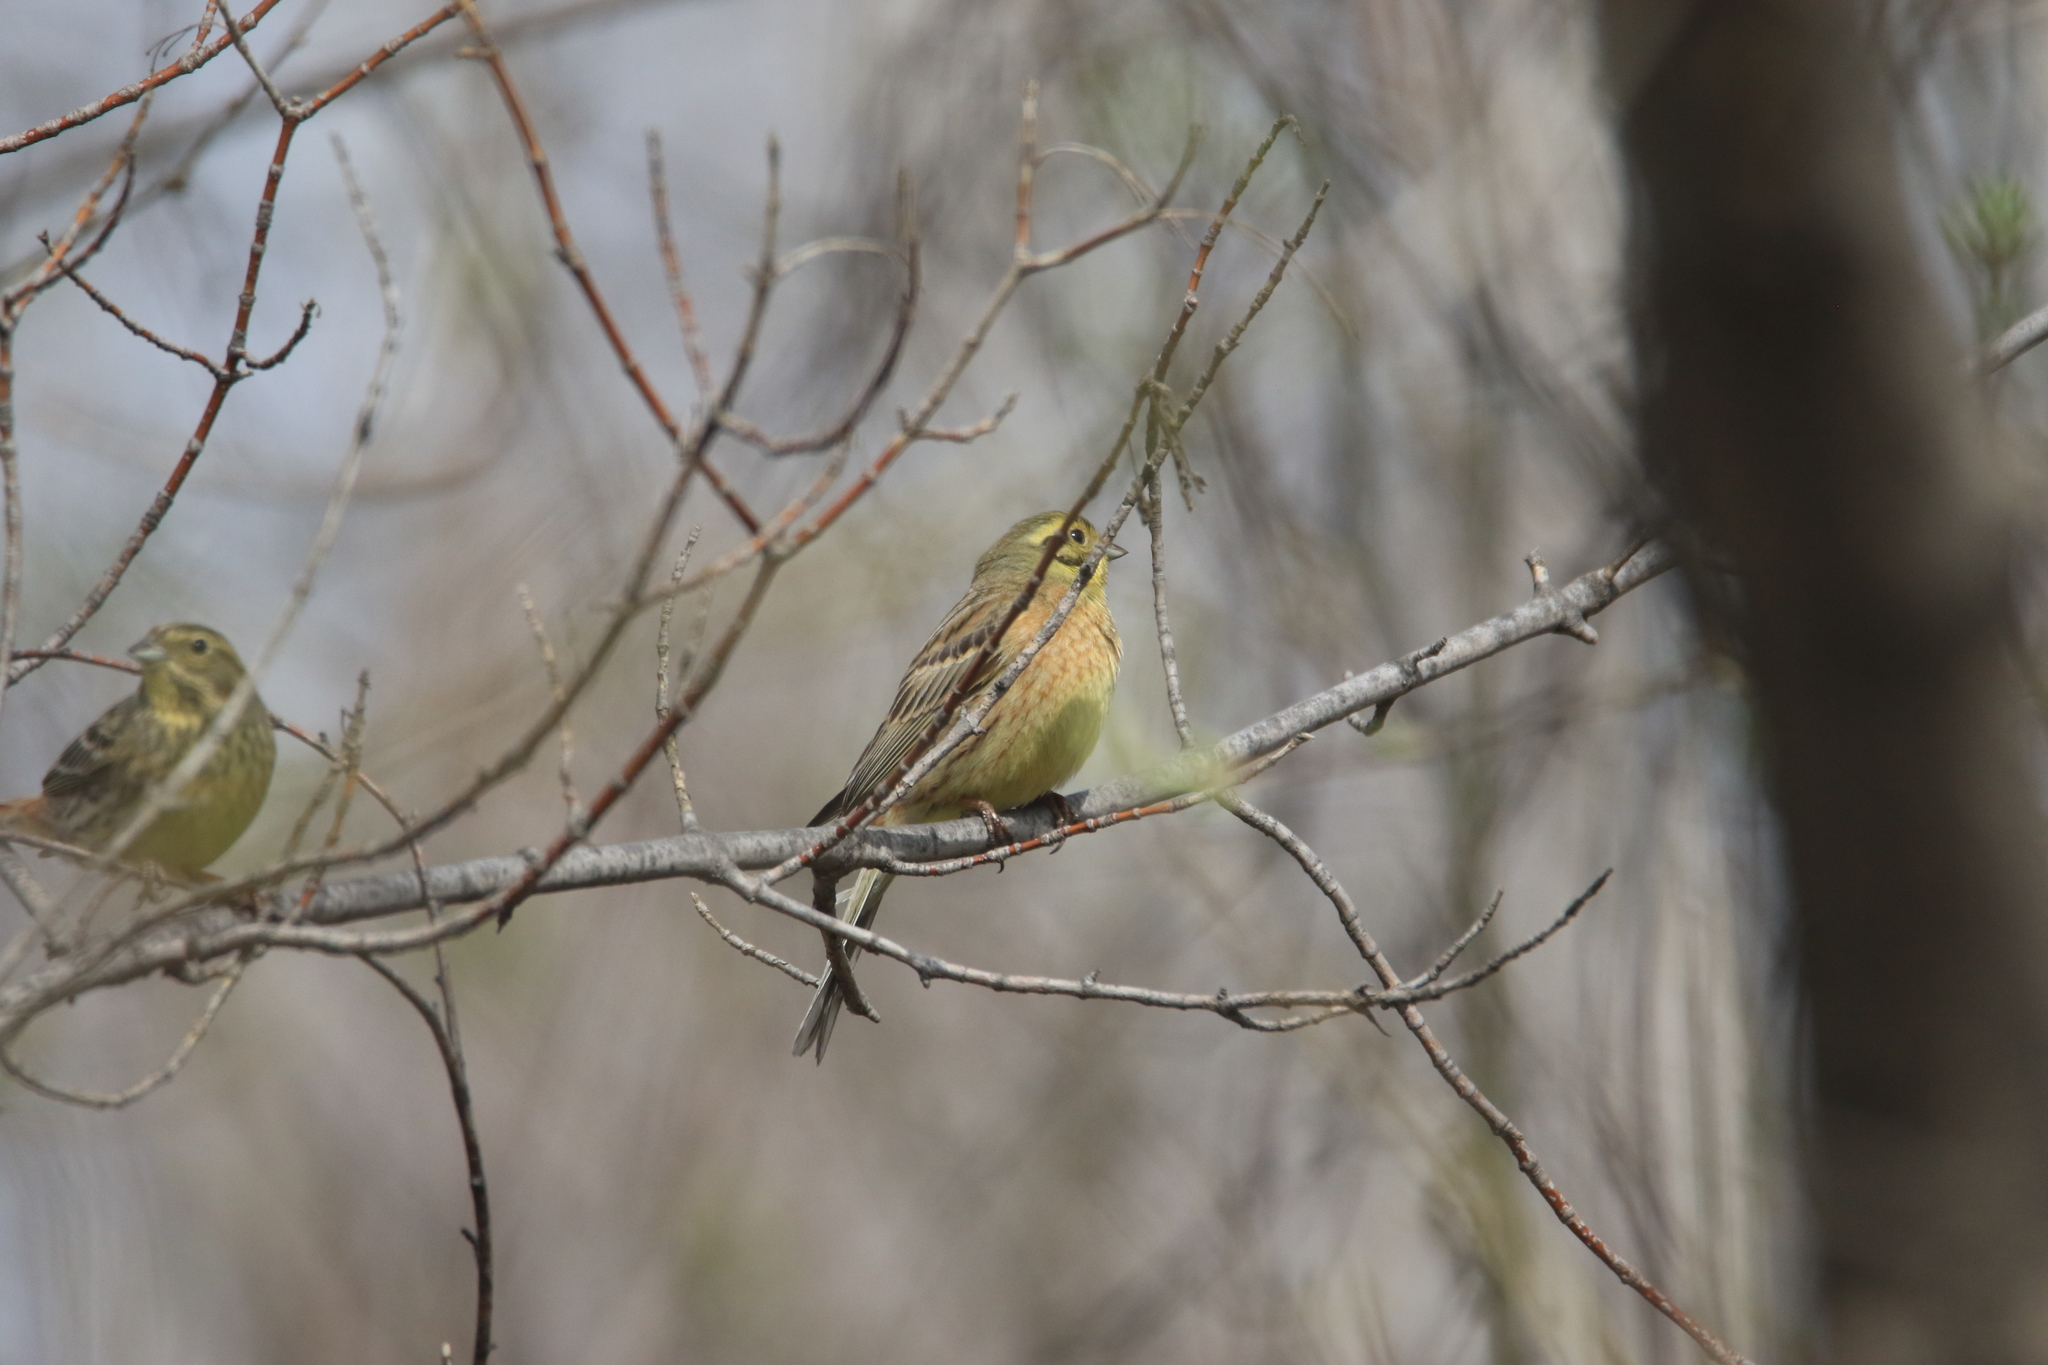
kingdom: Animalia
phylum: Chordata
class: Aves
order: Passeriformes
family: Emberizidae
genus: Emberiza
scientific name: Emberiza citrinella
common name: Yellowhammer
